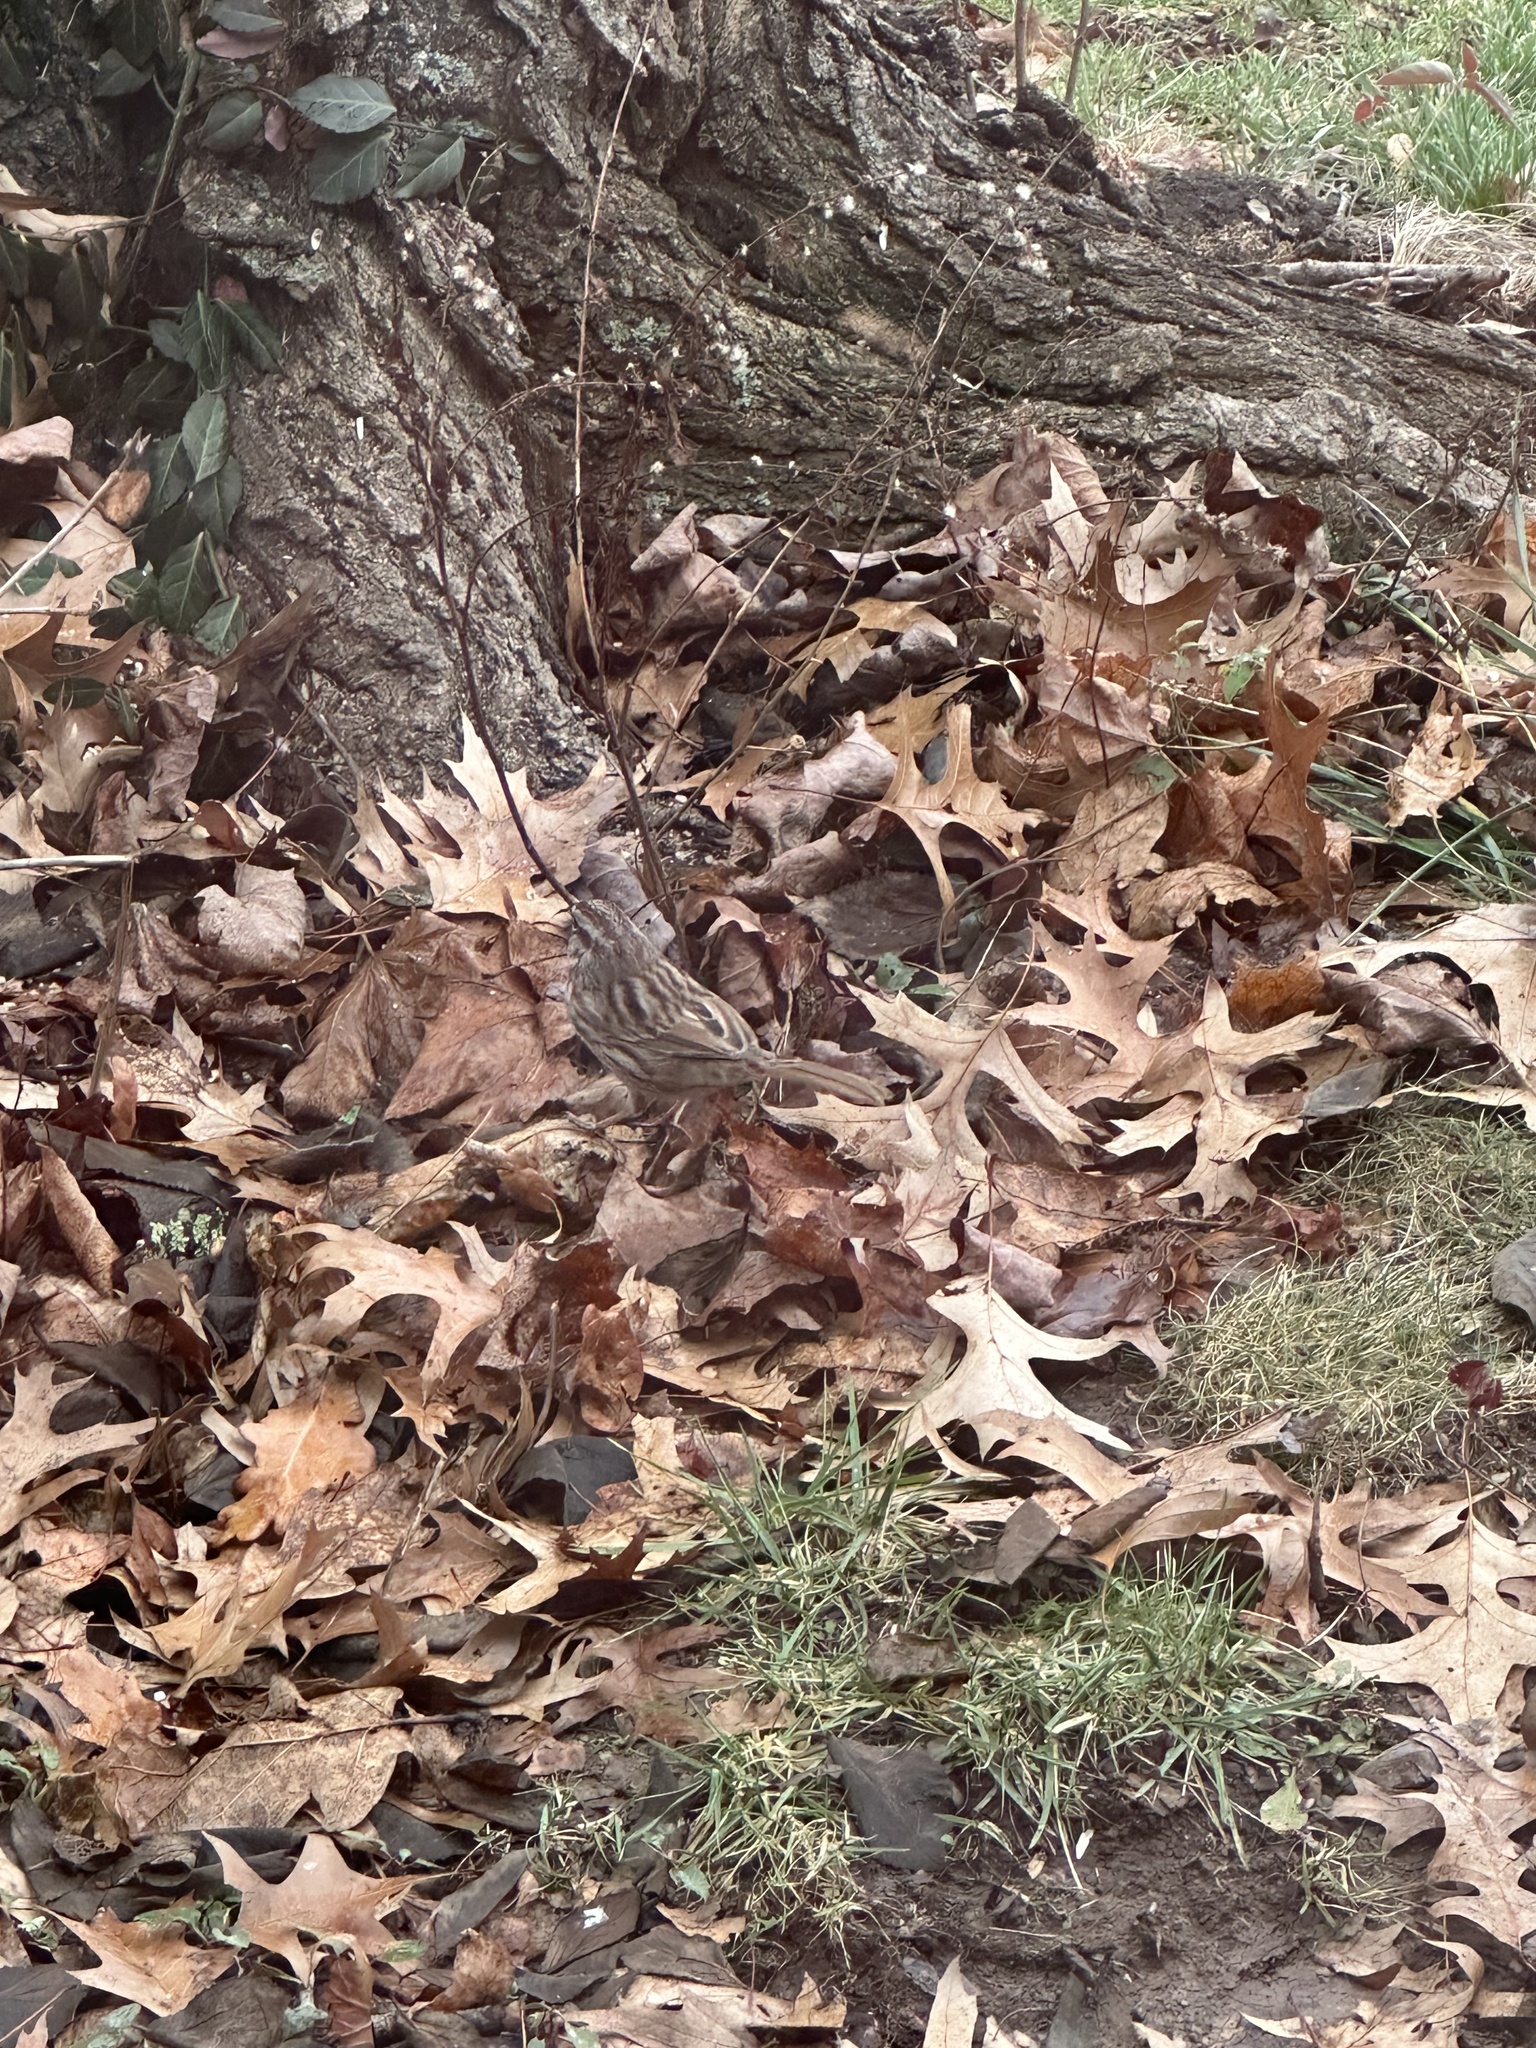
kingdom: Animalia
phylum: Chordata
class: Aves
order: Passeriformes
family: Passerellidae
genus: Melospiza
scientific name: Melospiza melodia
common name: Song sparrow
